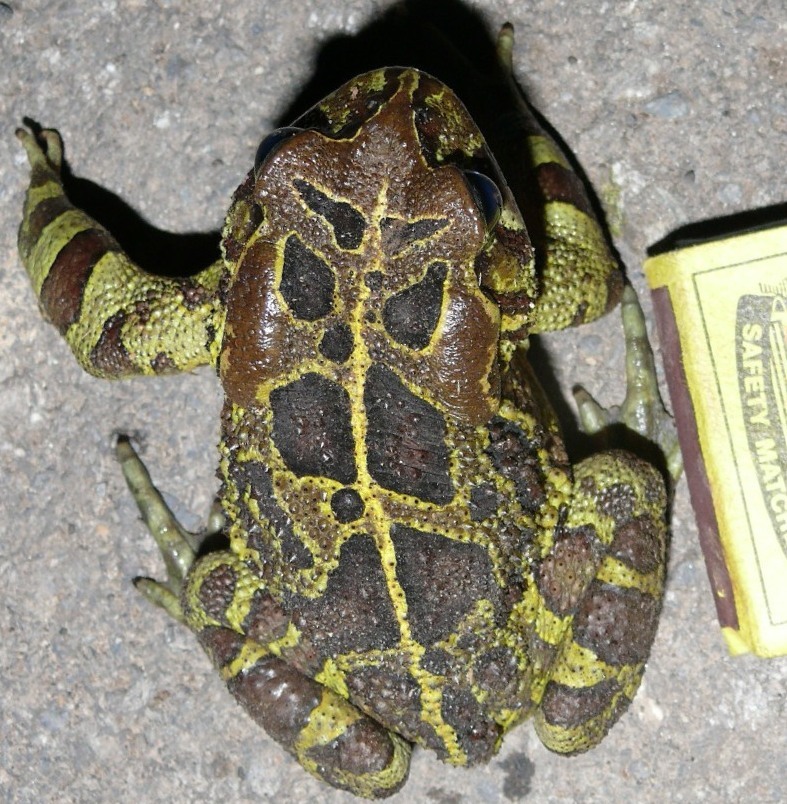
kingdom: Animalia
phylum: Chordata
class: Amphibia
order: Anura
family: Bufonidae
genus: Sclerophrys
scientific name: Sclerophrys pantherina
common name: Panther toad
